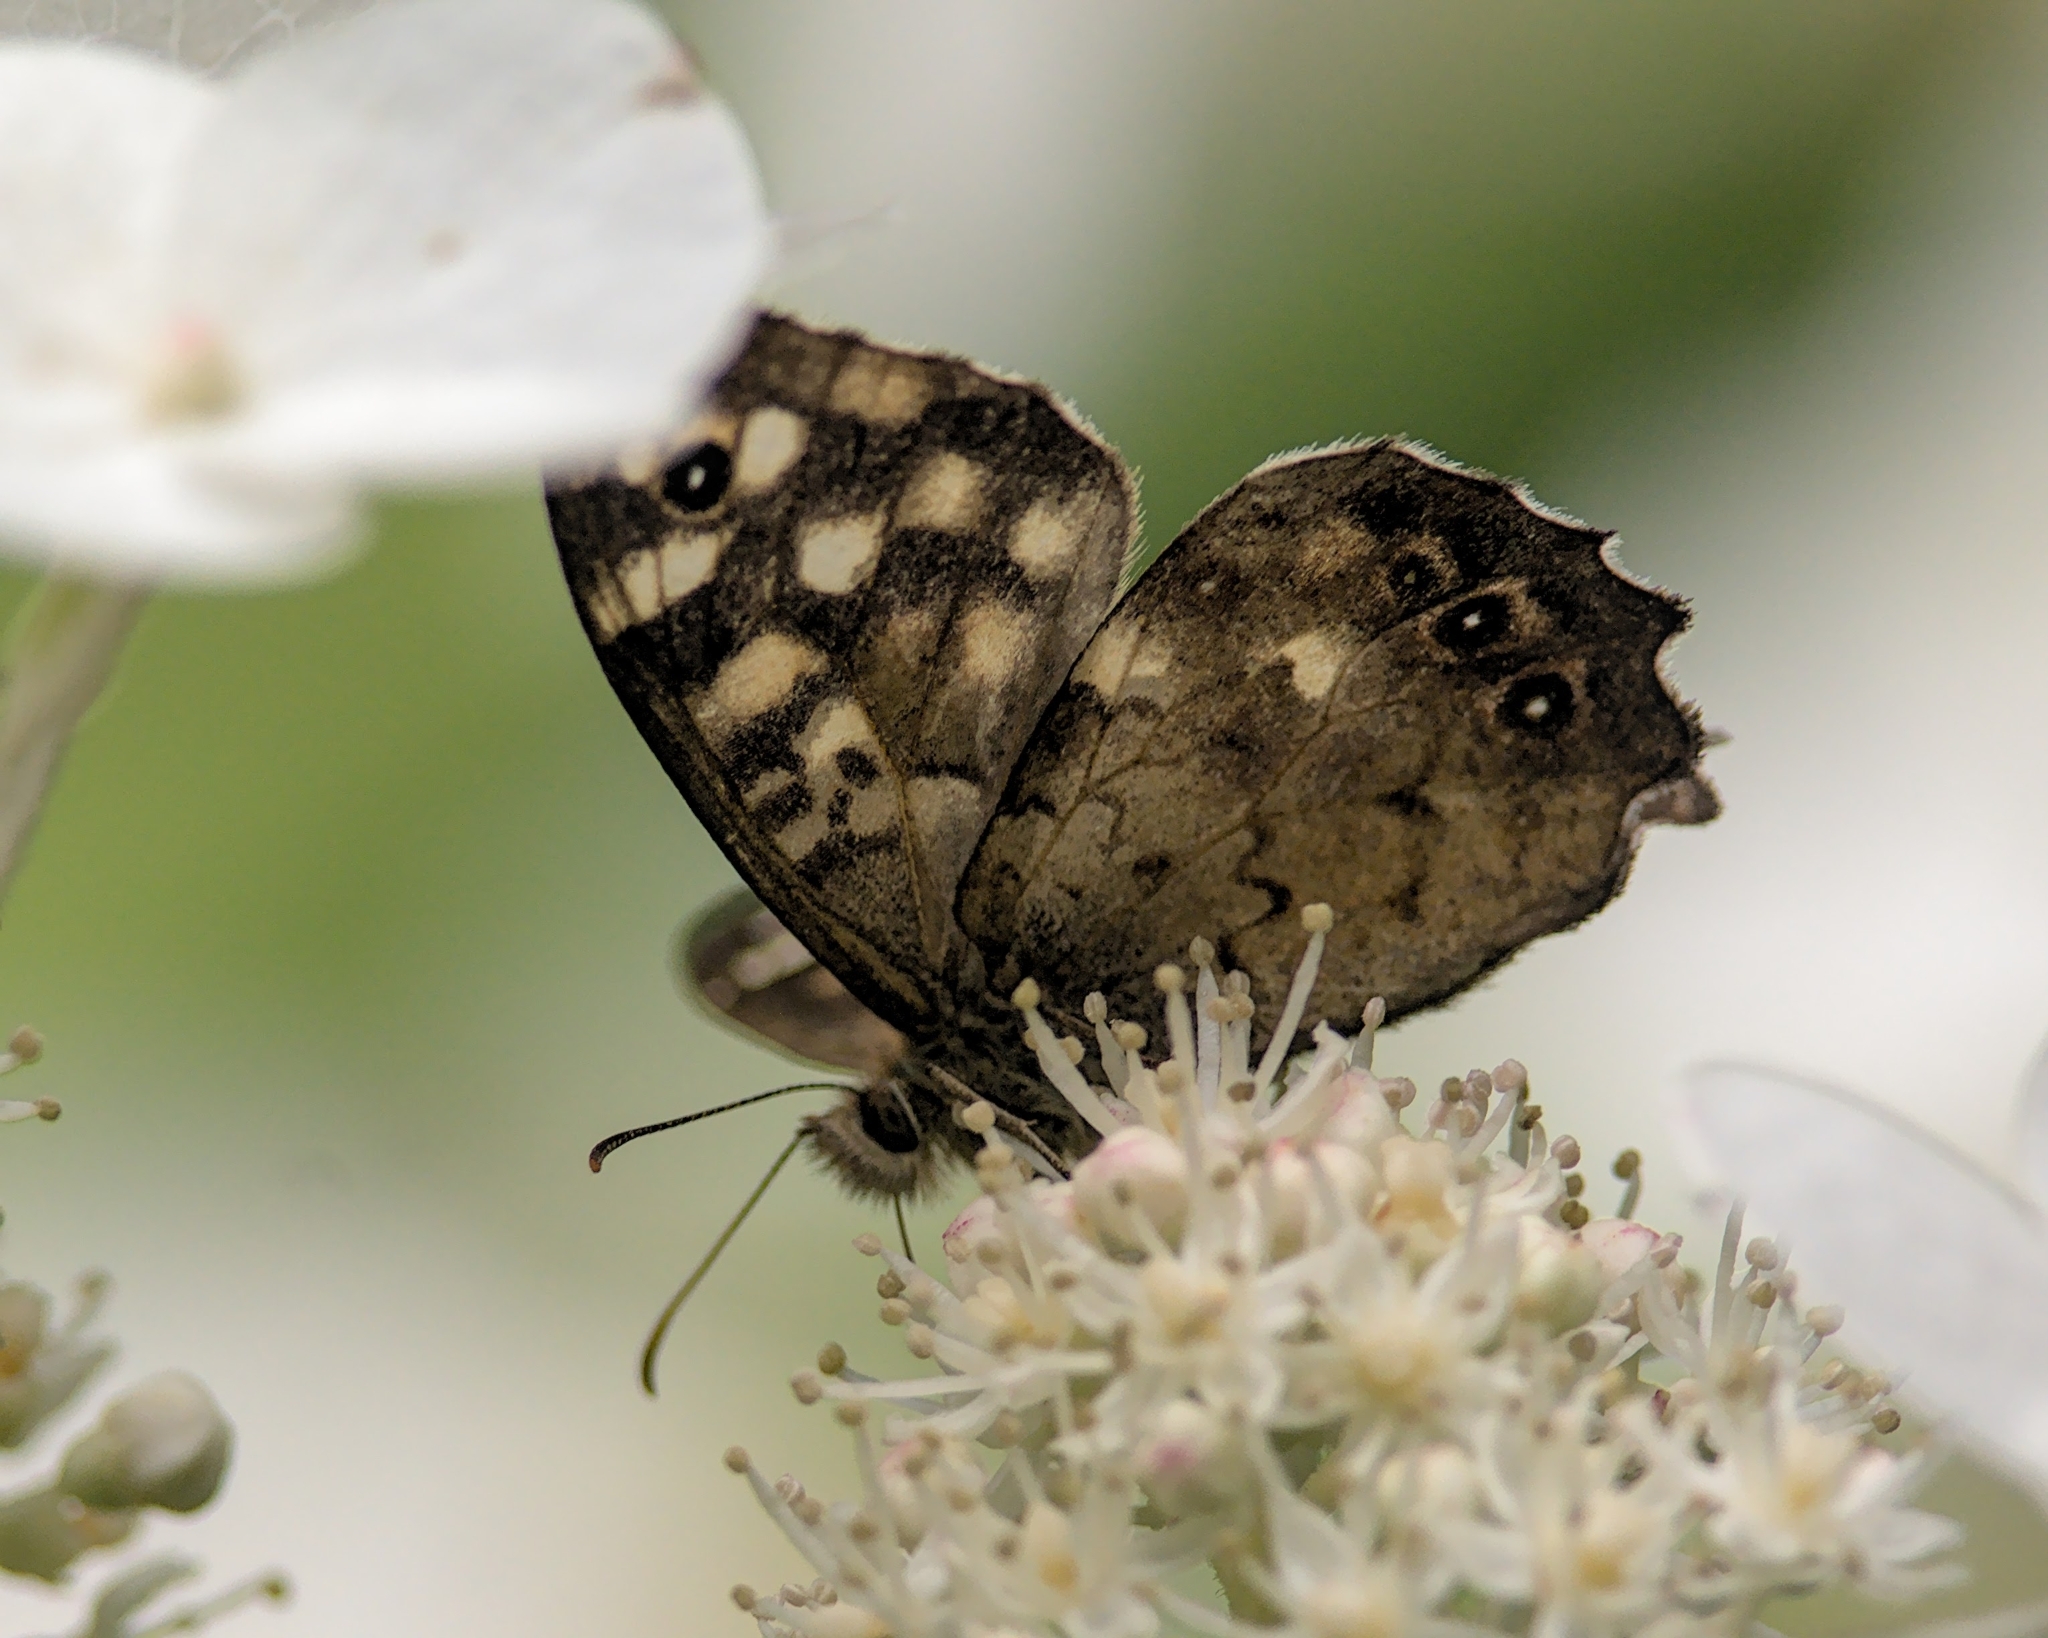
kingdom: Animalia
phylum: Arthropoda
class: Insecta
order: Lepidoptera
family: Nymphalidae
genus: Pararge
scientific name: Pararge aegeria
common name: Speckled wood
